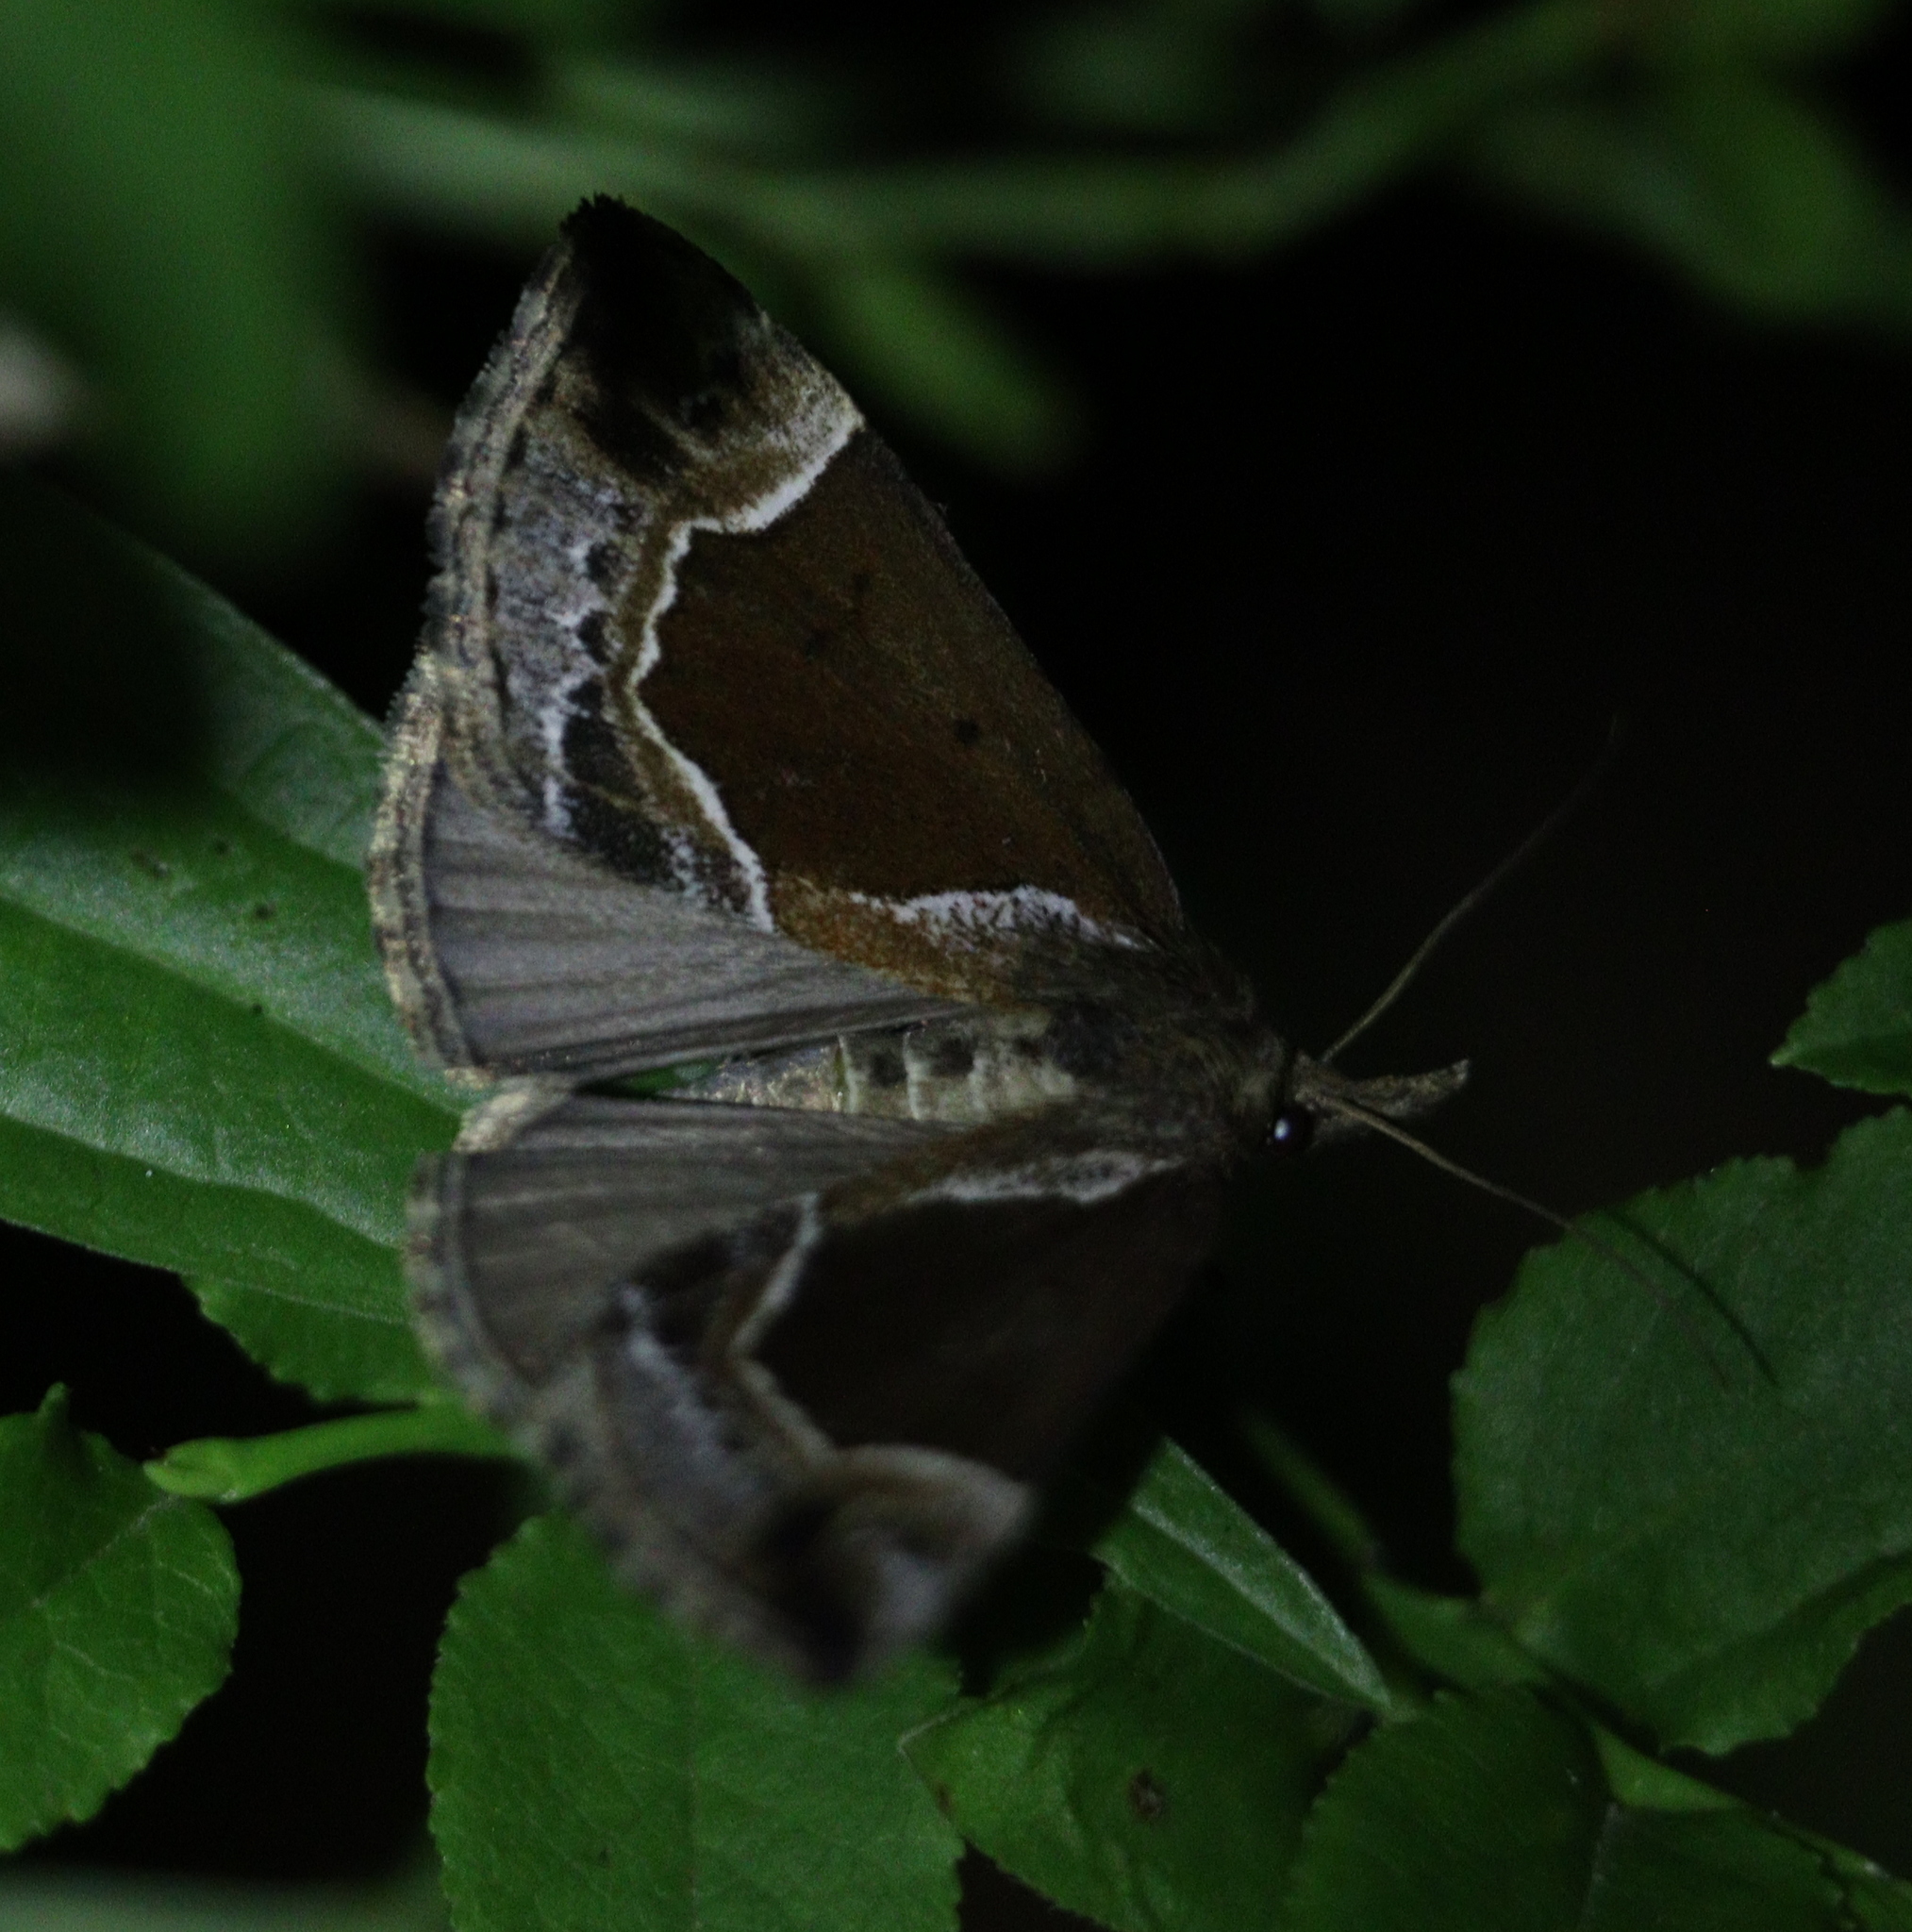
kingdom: Animalia
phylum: Arthropoda
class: Insecta
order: Lepidoptera
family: Erebidae
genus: Hypena
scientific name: Hypena crassalis
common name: Beautiful snout
